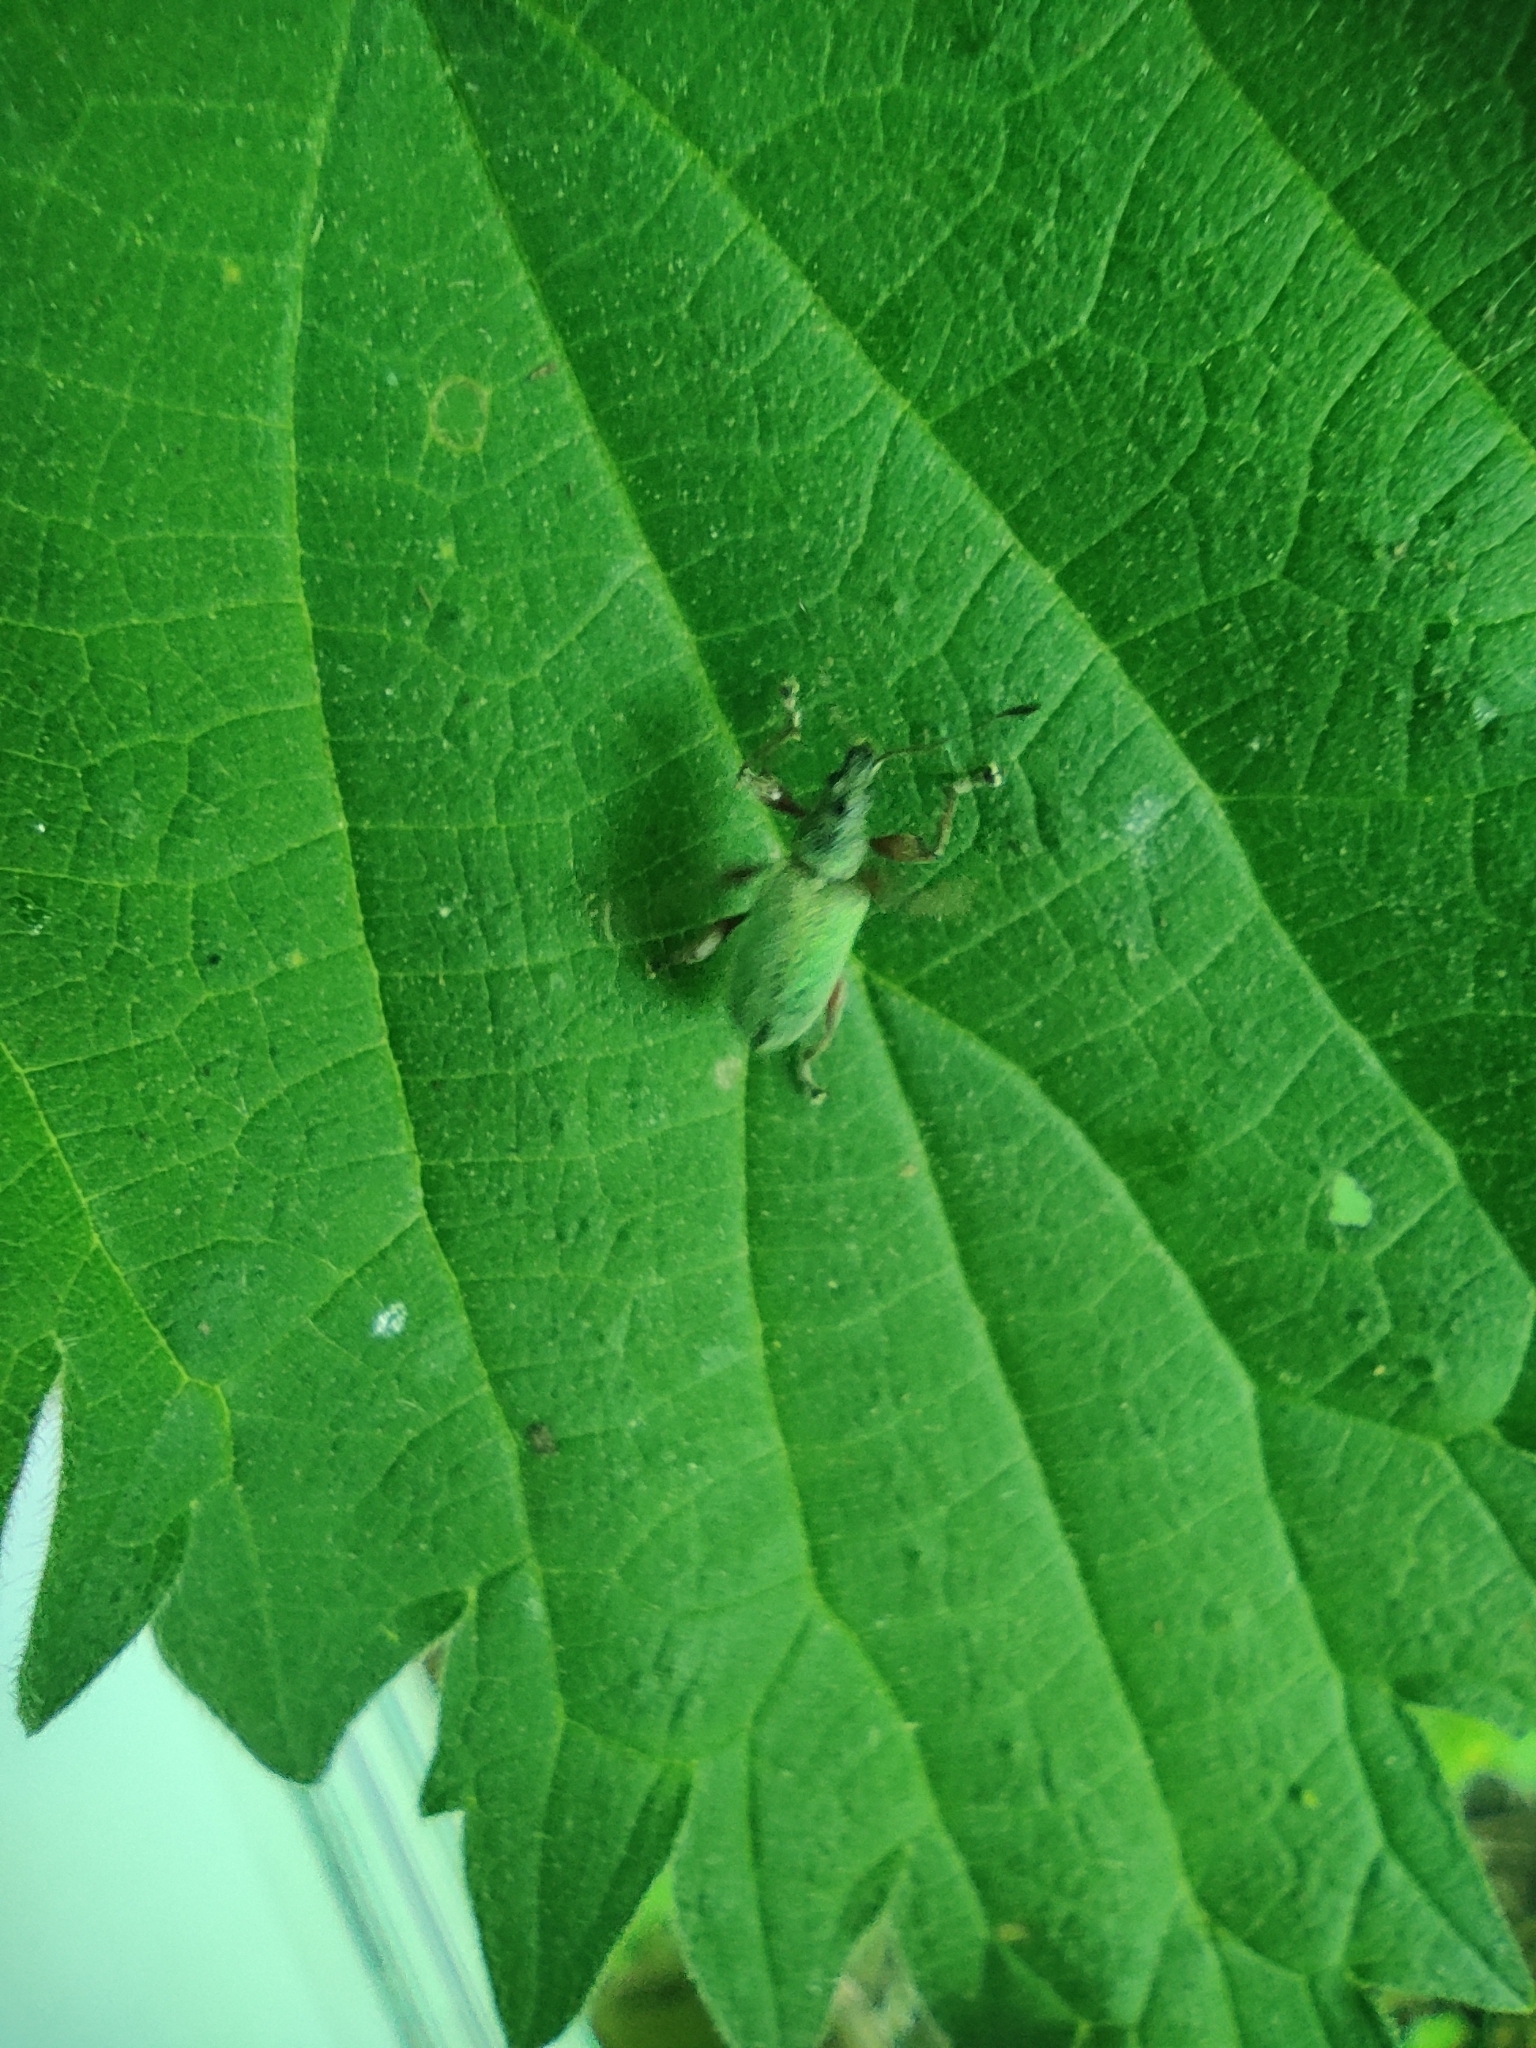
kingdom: Animalia
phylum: Arthropoda
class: Insecta
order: Coleoptera
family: Curculionidae
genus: Phyllobius
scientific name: Phyllobius pomaceus
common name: Green nettle weevil
